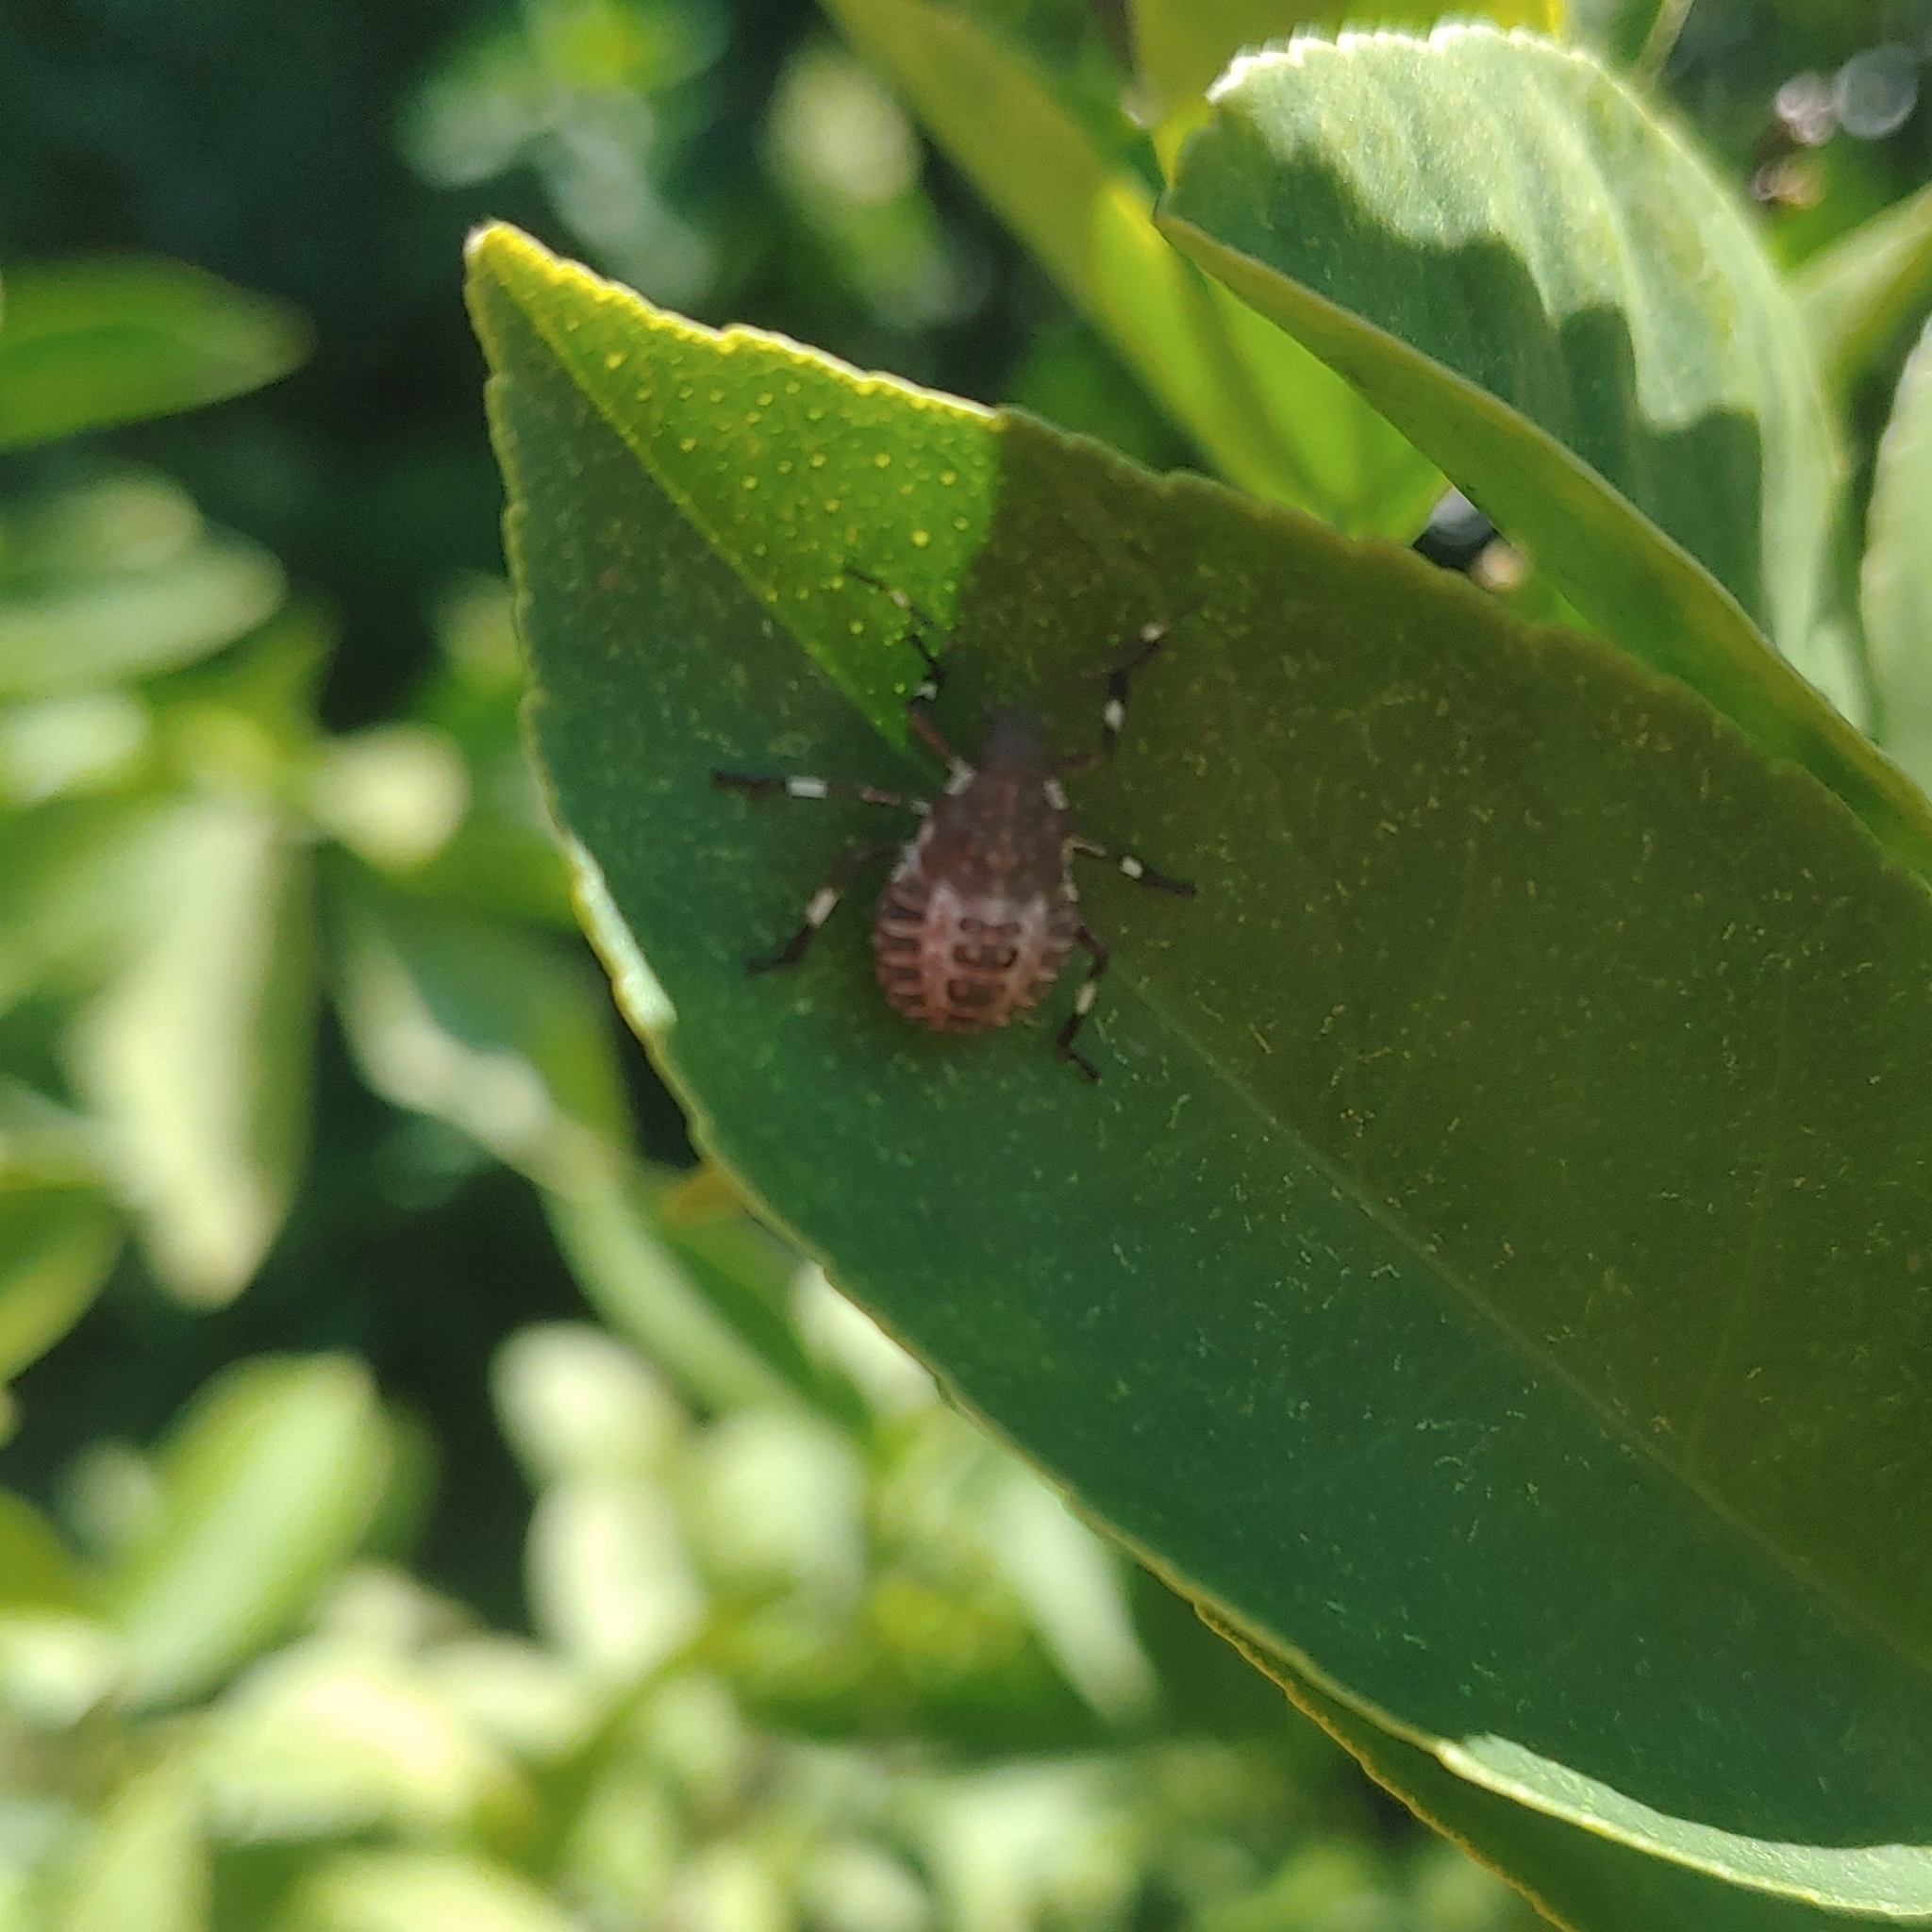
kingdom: Animalia
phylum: Arthropoda
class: Insecta
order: Hemiptera
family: Pentatomidae
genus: Halyomorpha
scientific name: Halyomorpha halys
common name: Brown marmorated stink bug
